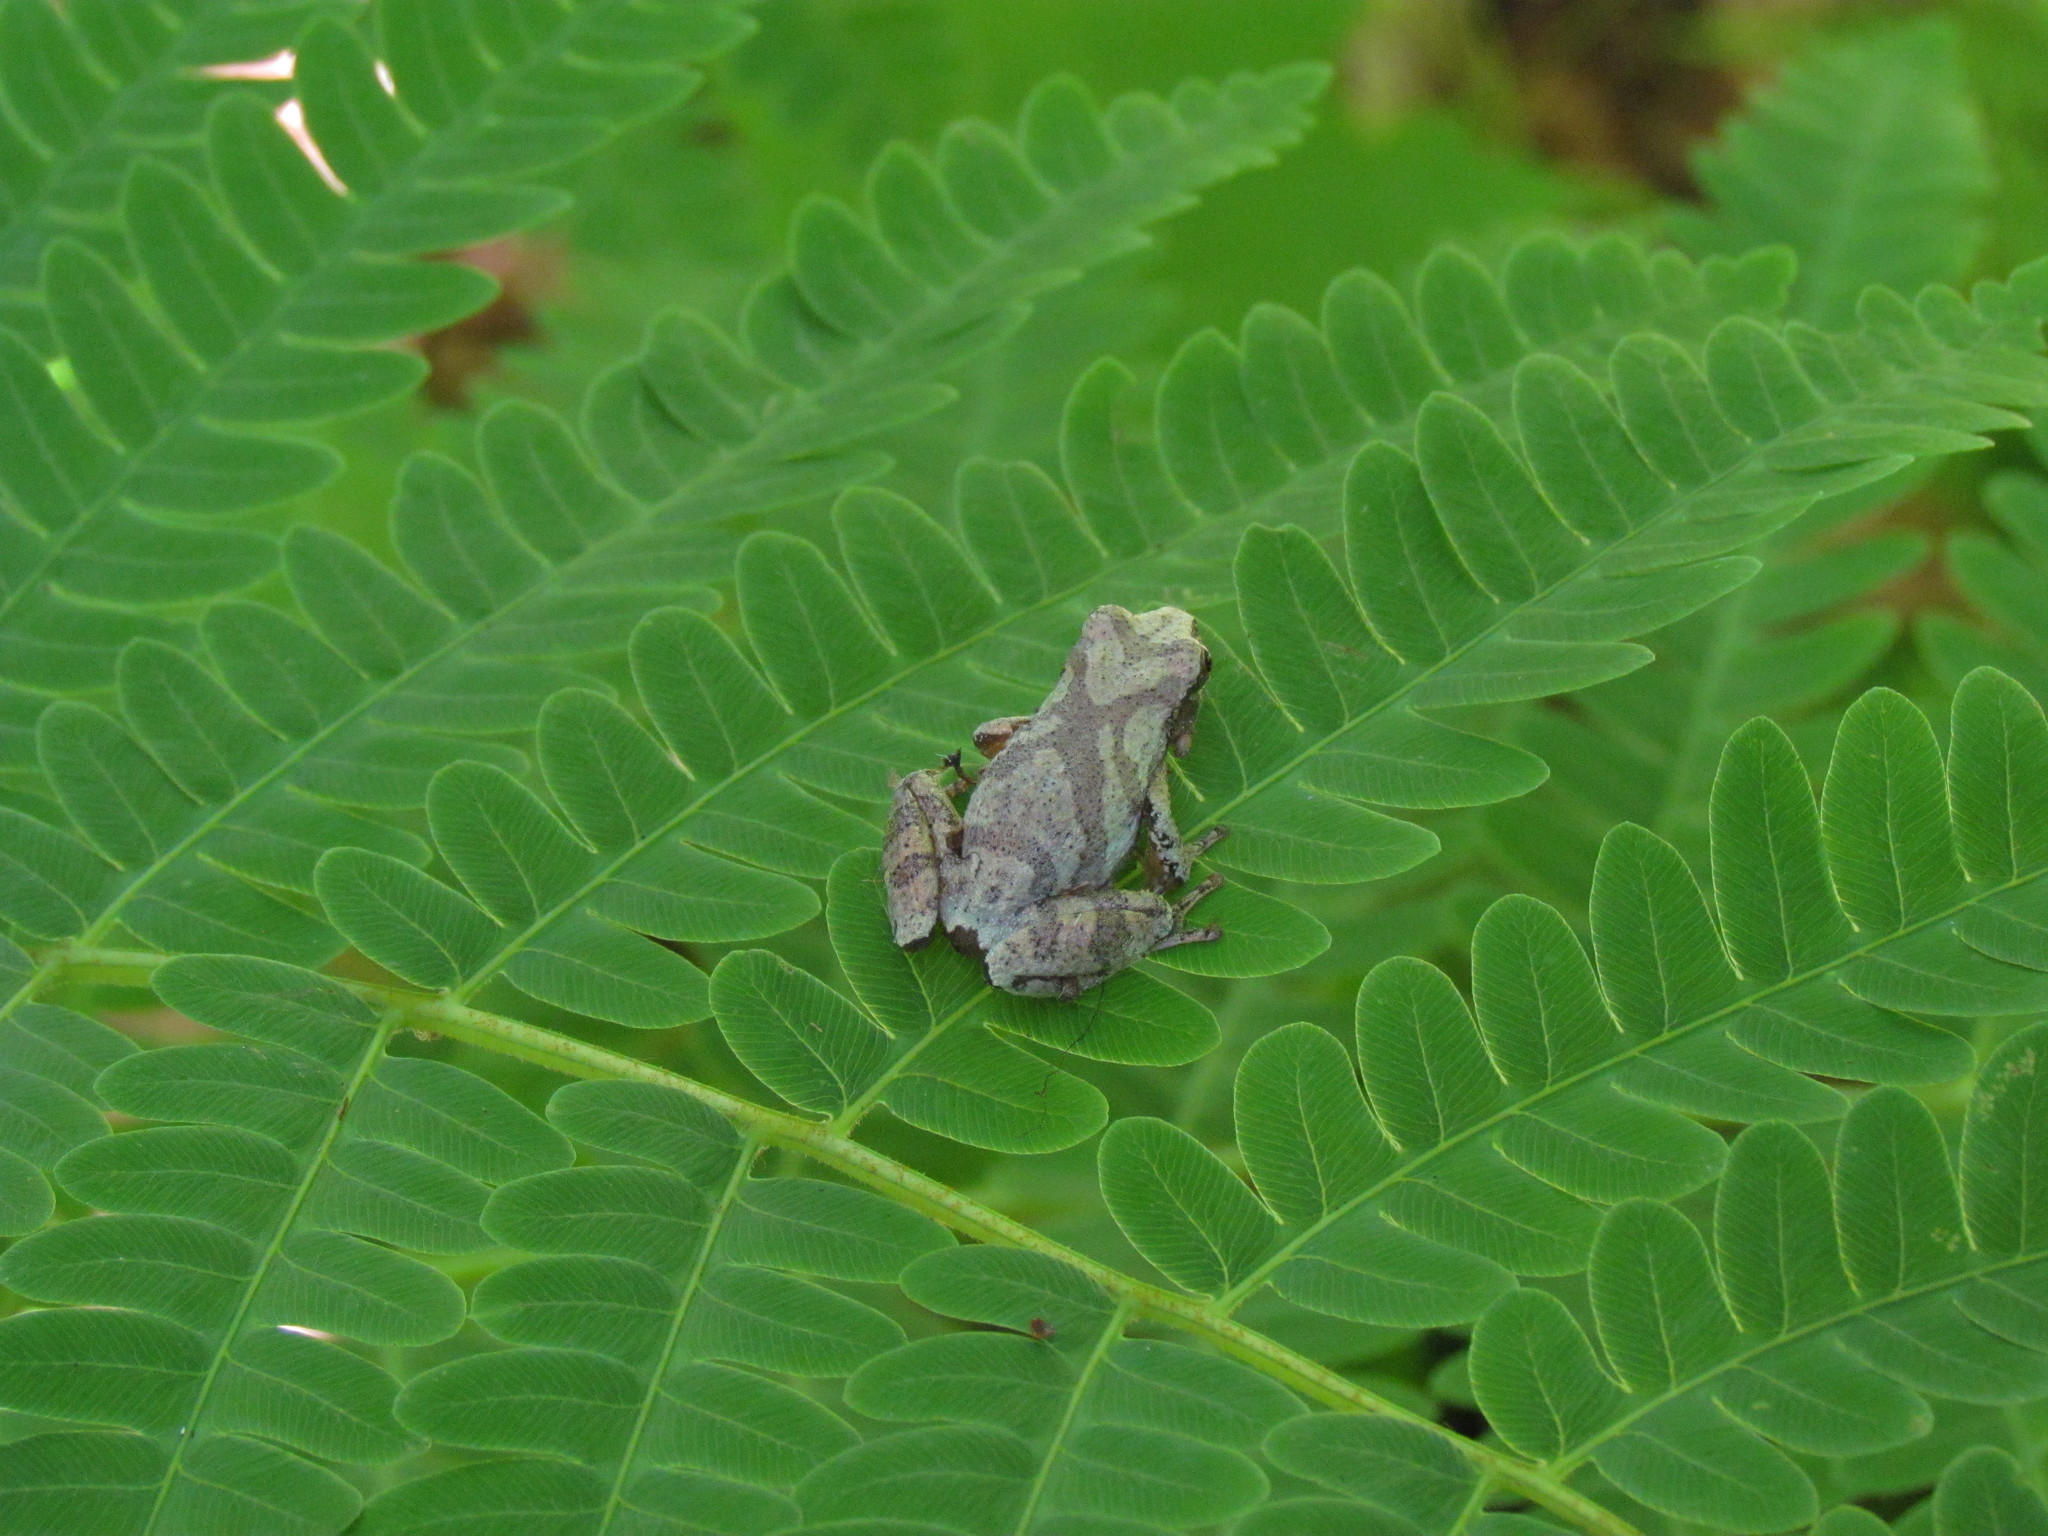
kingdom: Animalia
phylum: Chordata
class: Amphibia
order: Anura
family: Hylidae
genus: Pseudacris
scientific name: Pseudacris crucifer
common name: Spring peeper
